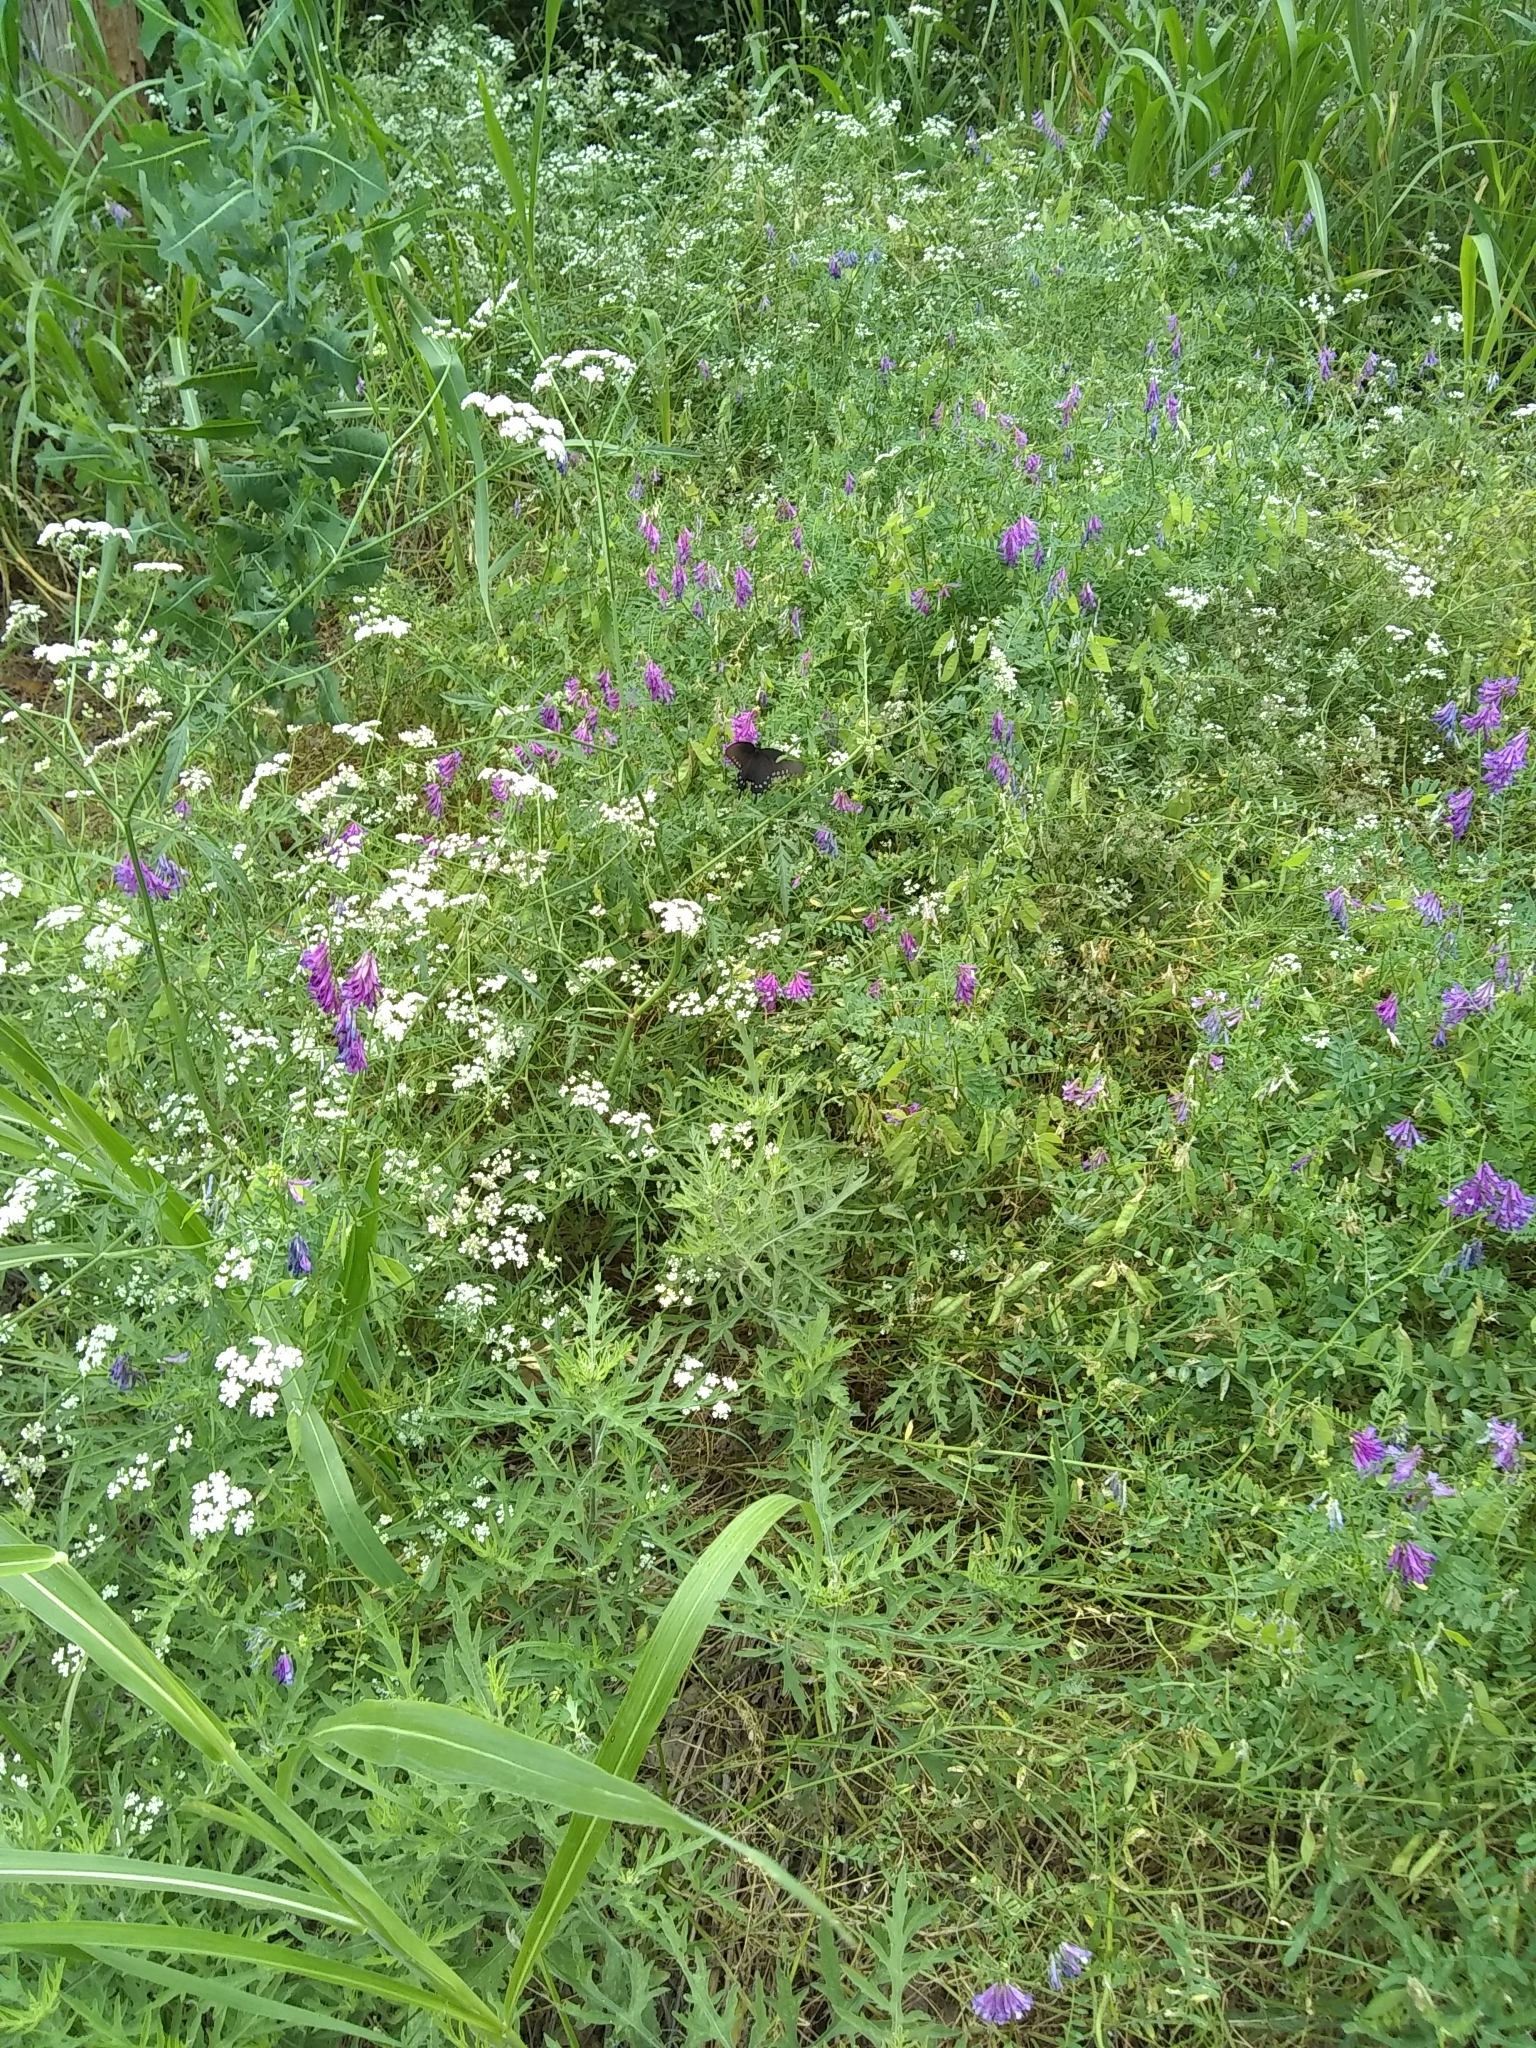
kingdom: Animalia
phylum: Arthropoda
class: Insecta
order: Lepidoptera
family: Papilionidae
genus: Battus
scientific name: Battus philenor
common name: Pipevine swallowtail
